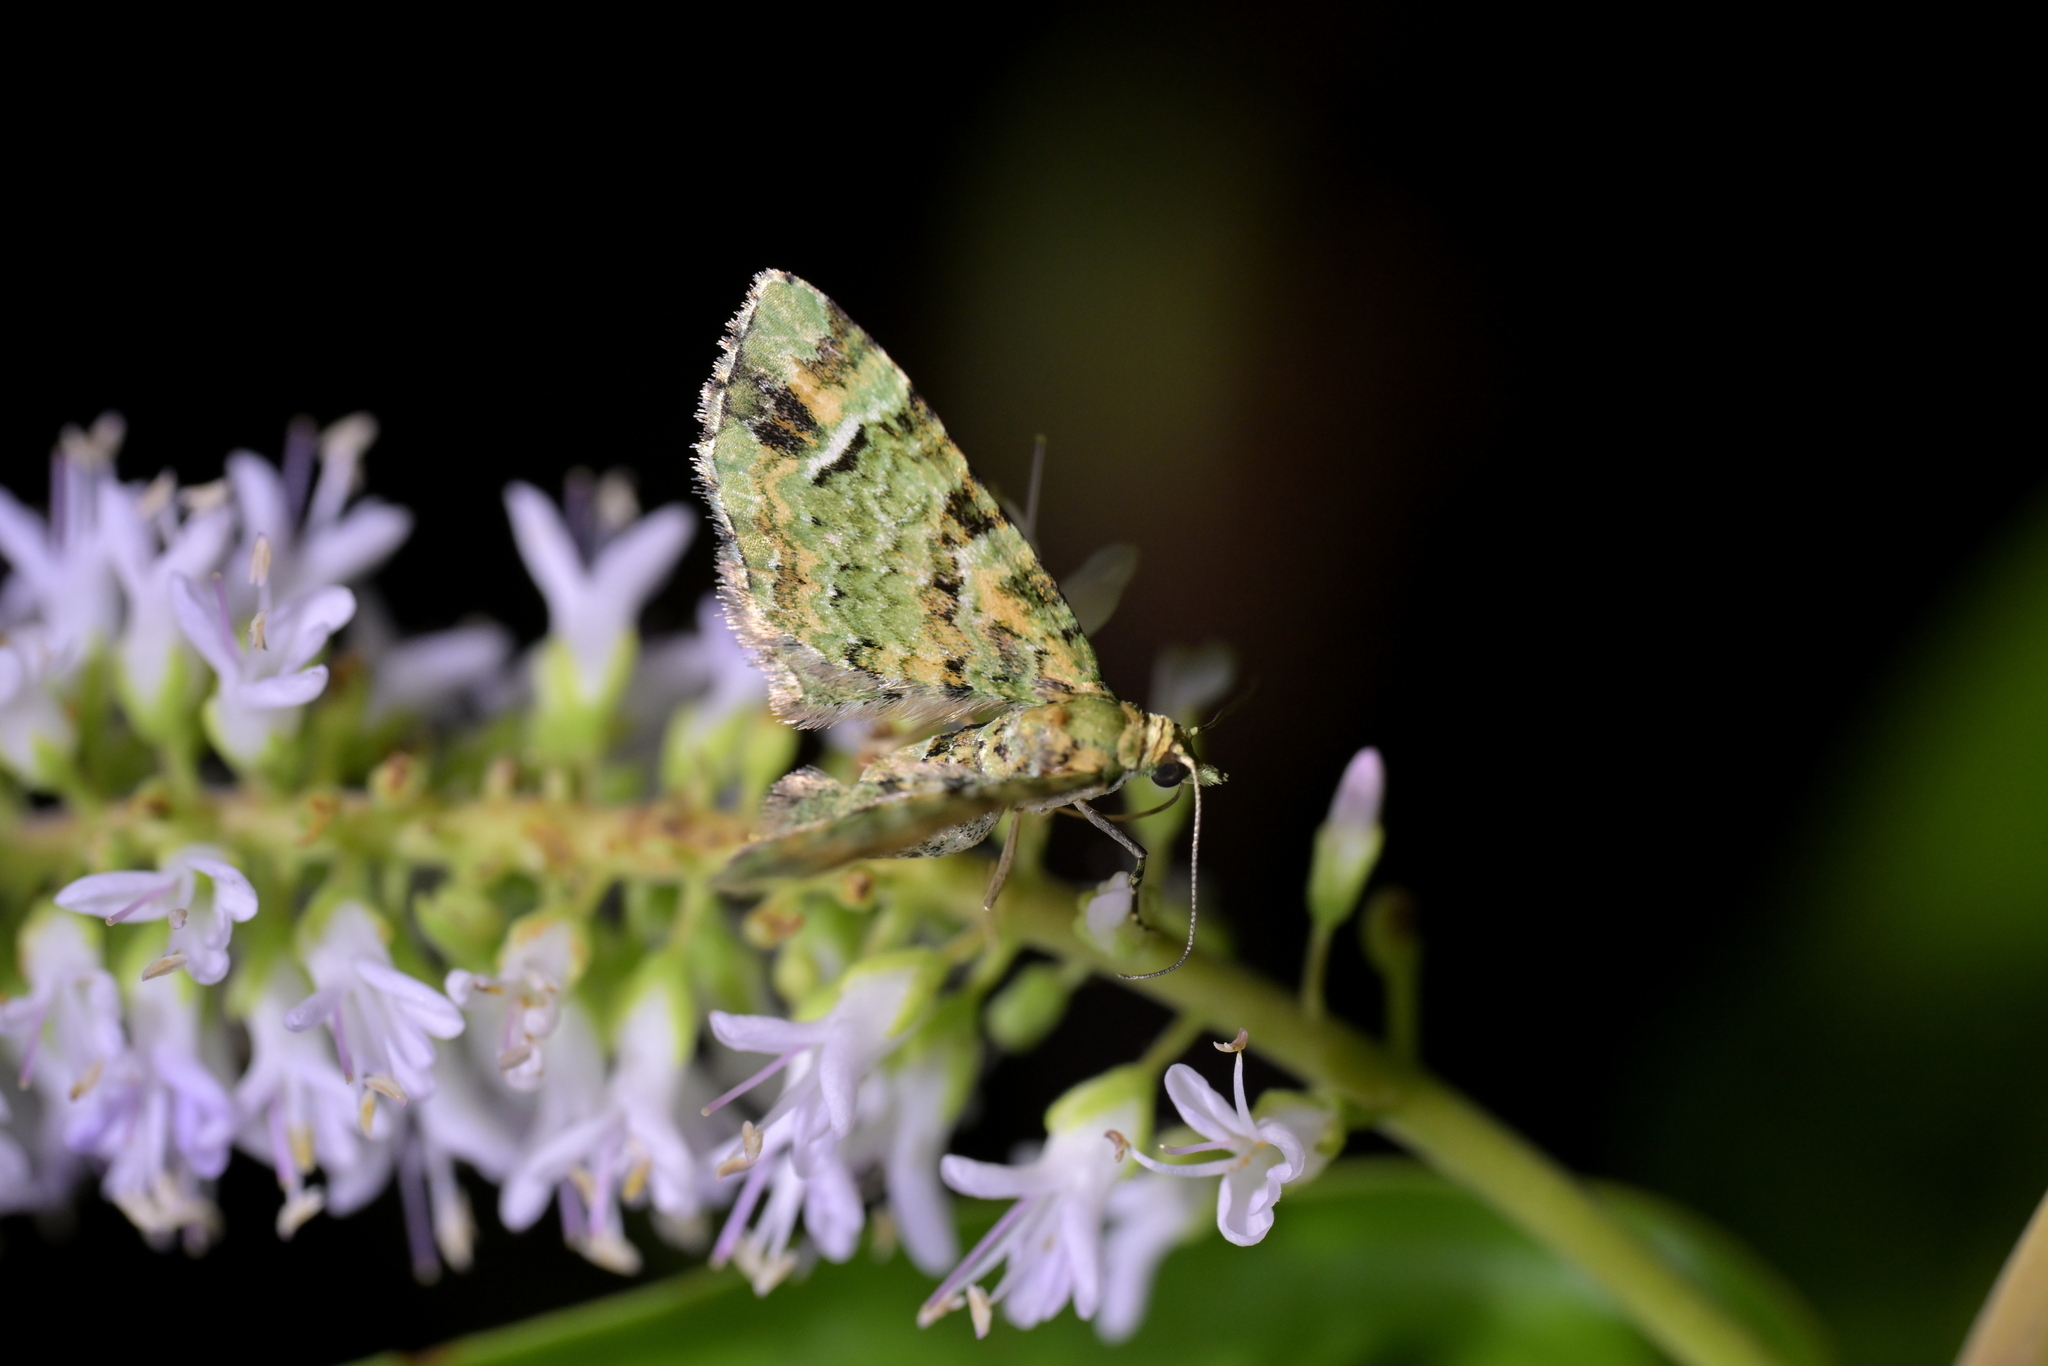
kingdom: Animalia
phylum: Arthropoda
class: Insecta
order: Lepidoptera
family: Geometridae
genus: Pasiphila
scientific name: Pasiphila bilineolata
